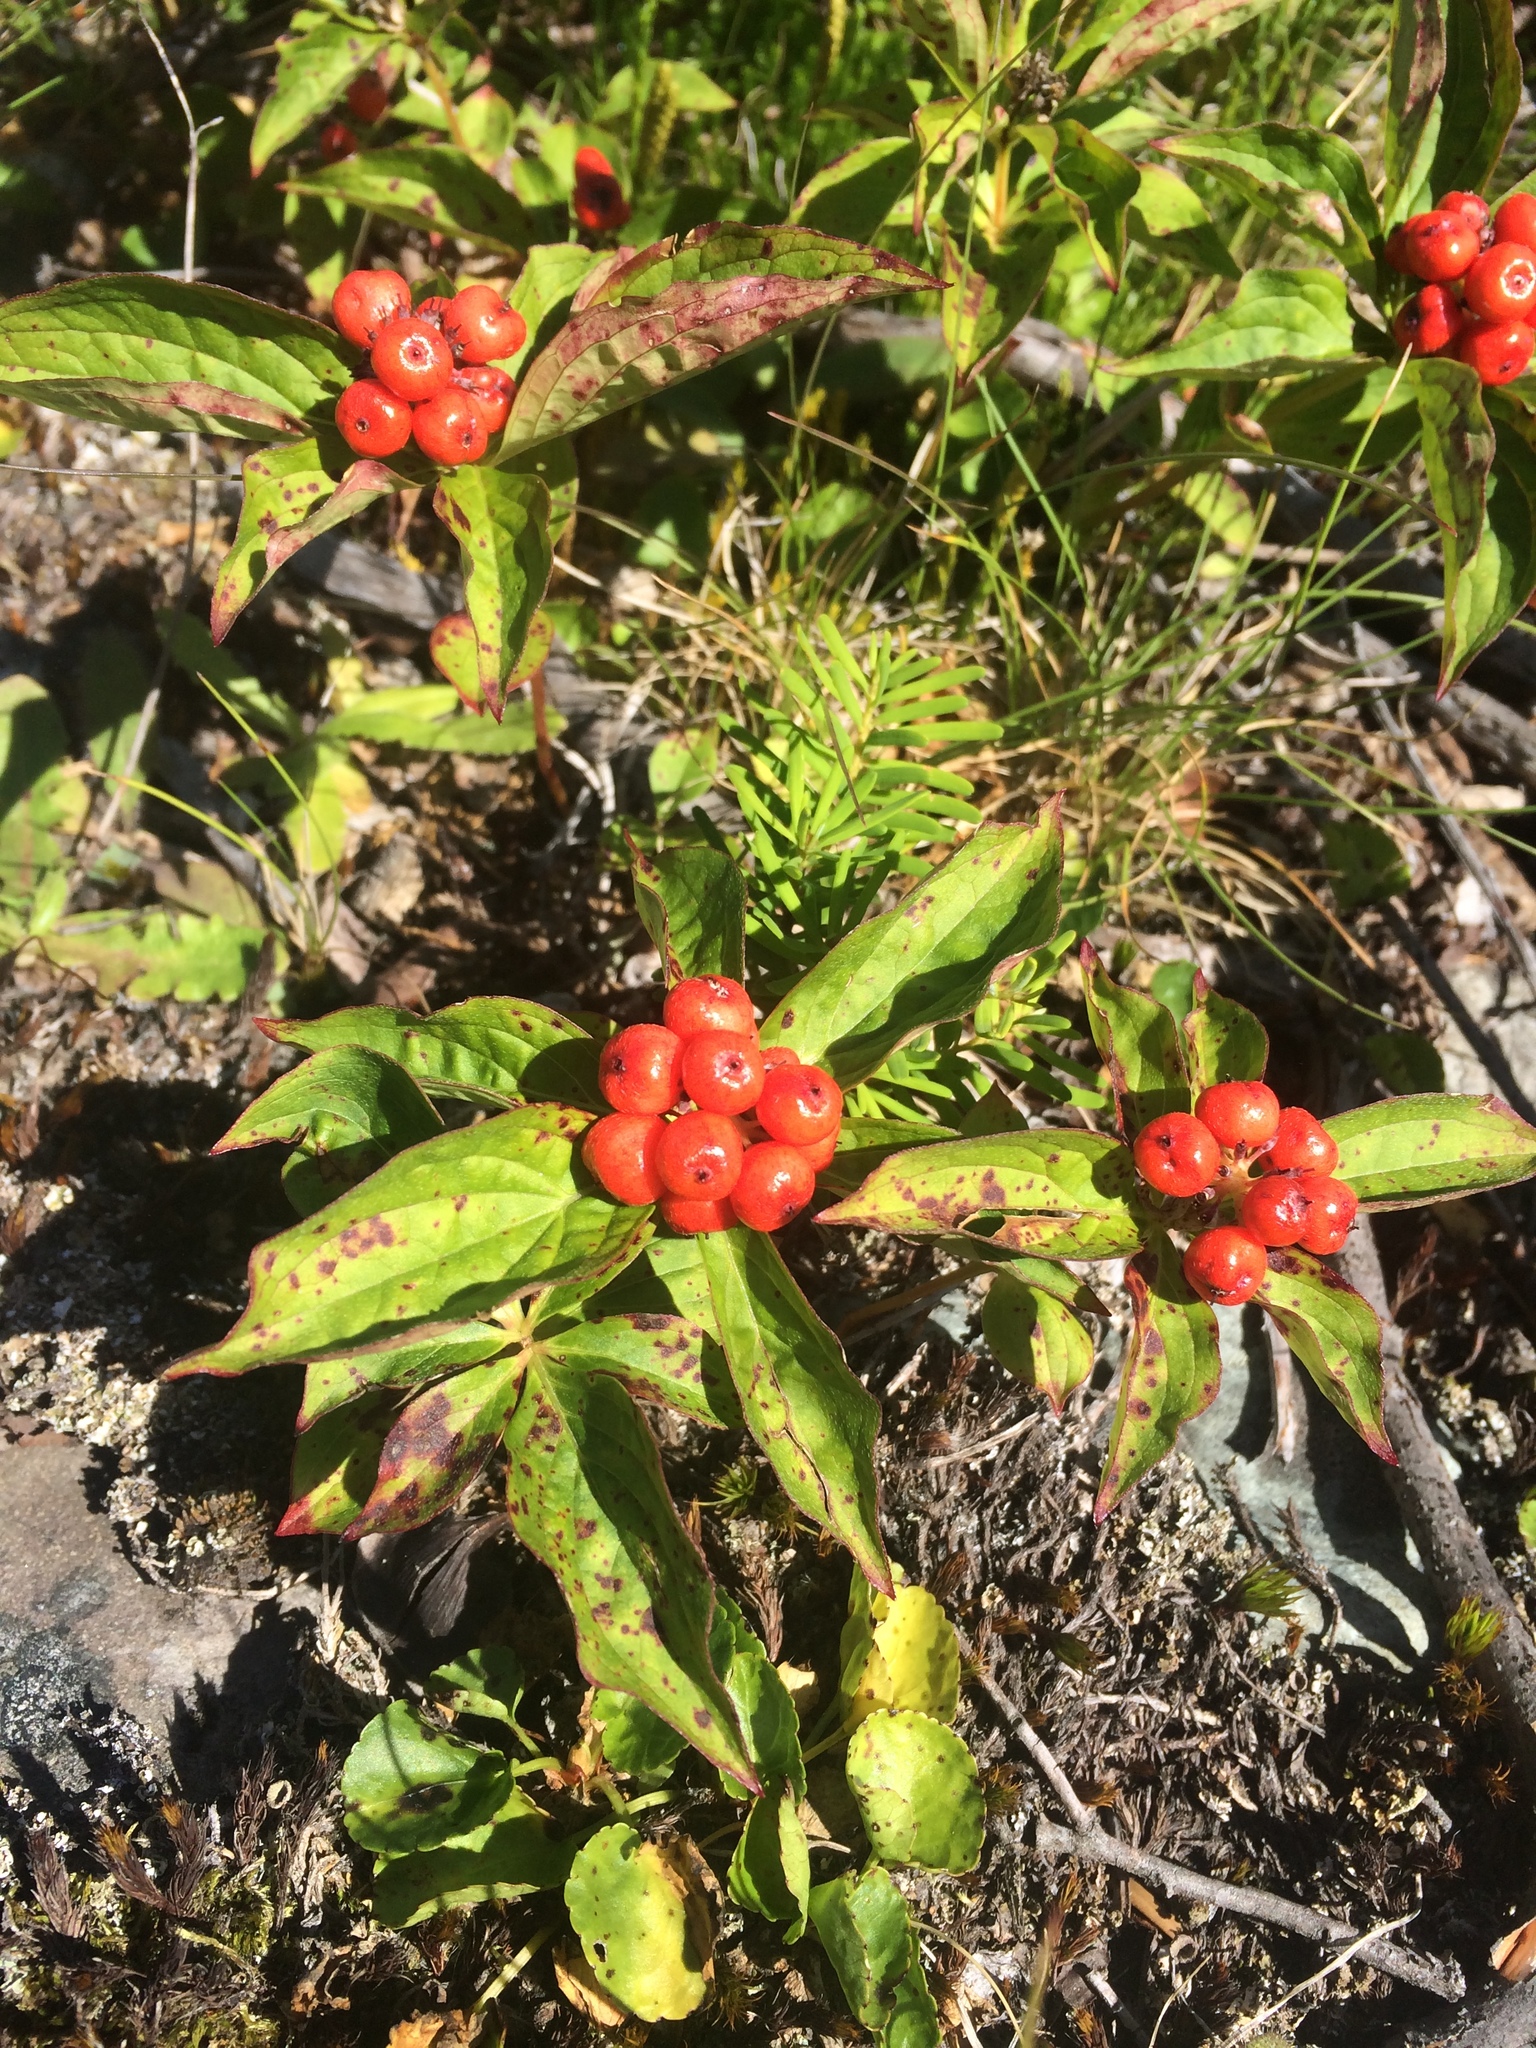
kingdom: Plantae
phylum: Tracheophyta
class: Magnoliopsida
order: Cornales
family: Cornaceae
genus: Cornus
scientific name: Cornus unalaschkensis
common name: Alaska bunchberry
